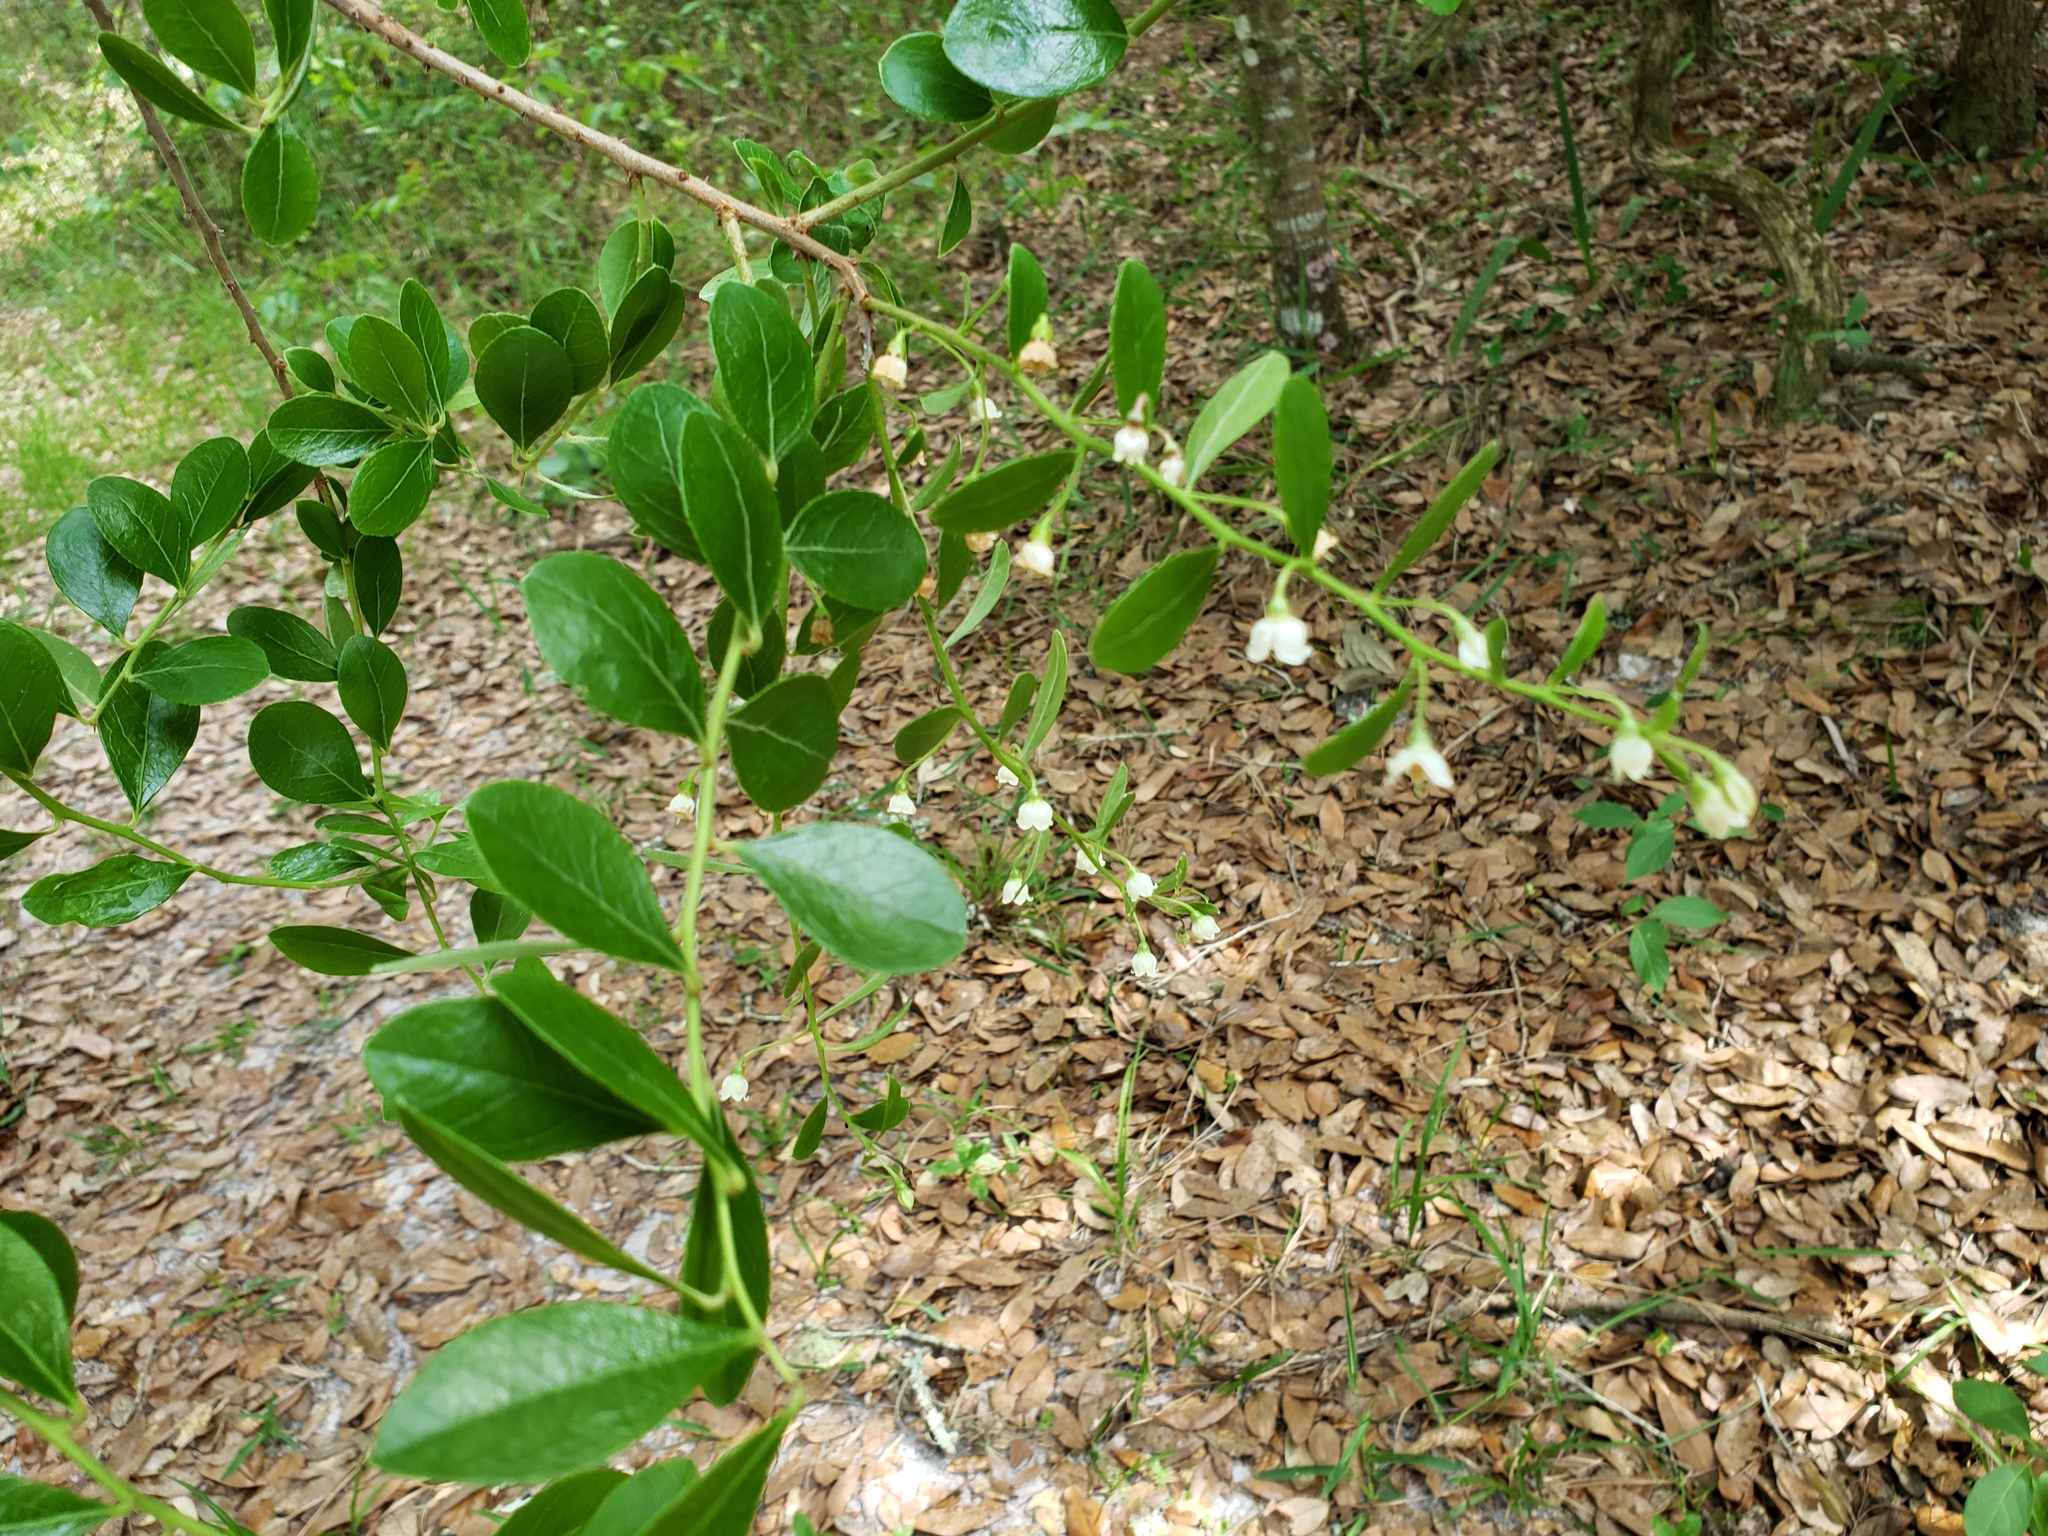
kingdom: Plantae
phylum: Tracheophyta
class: Magnoliopsida
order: Ericales
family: Ericaceae
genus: Vaccinium
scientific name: Vaccinium arboreum
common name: Farkleberry
